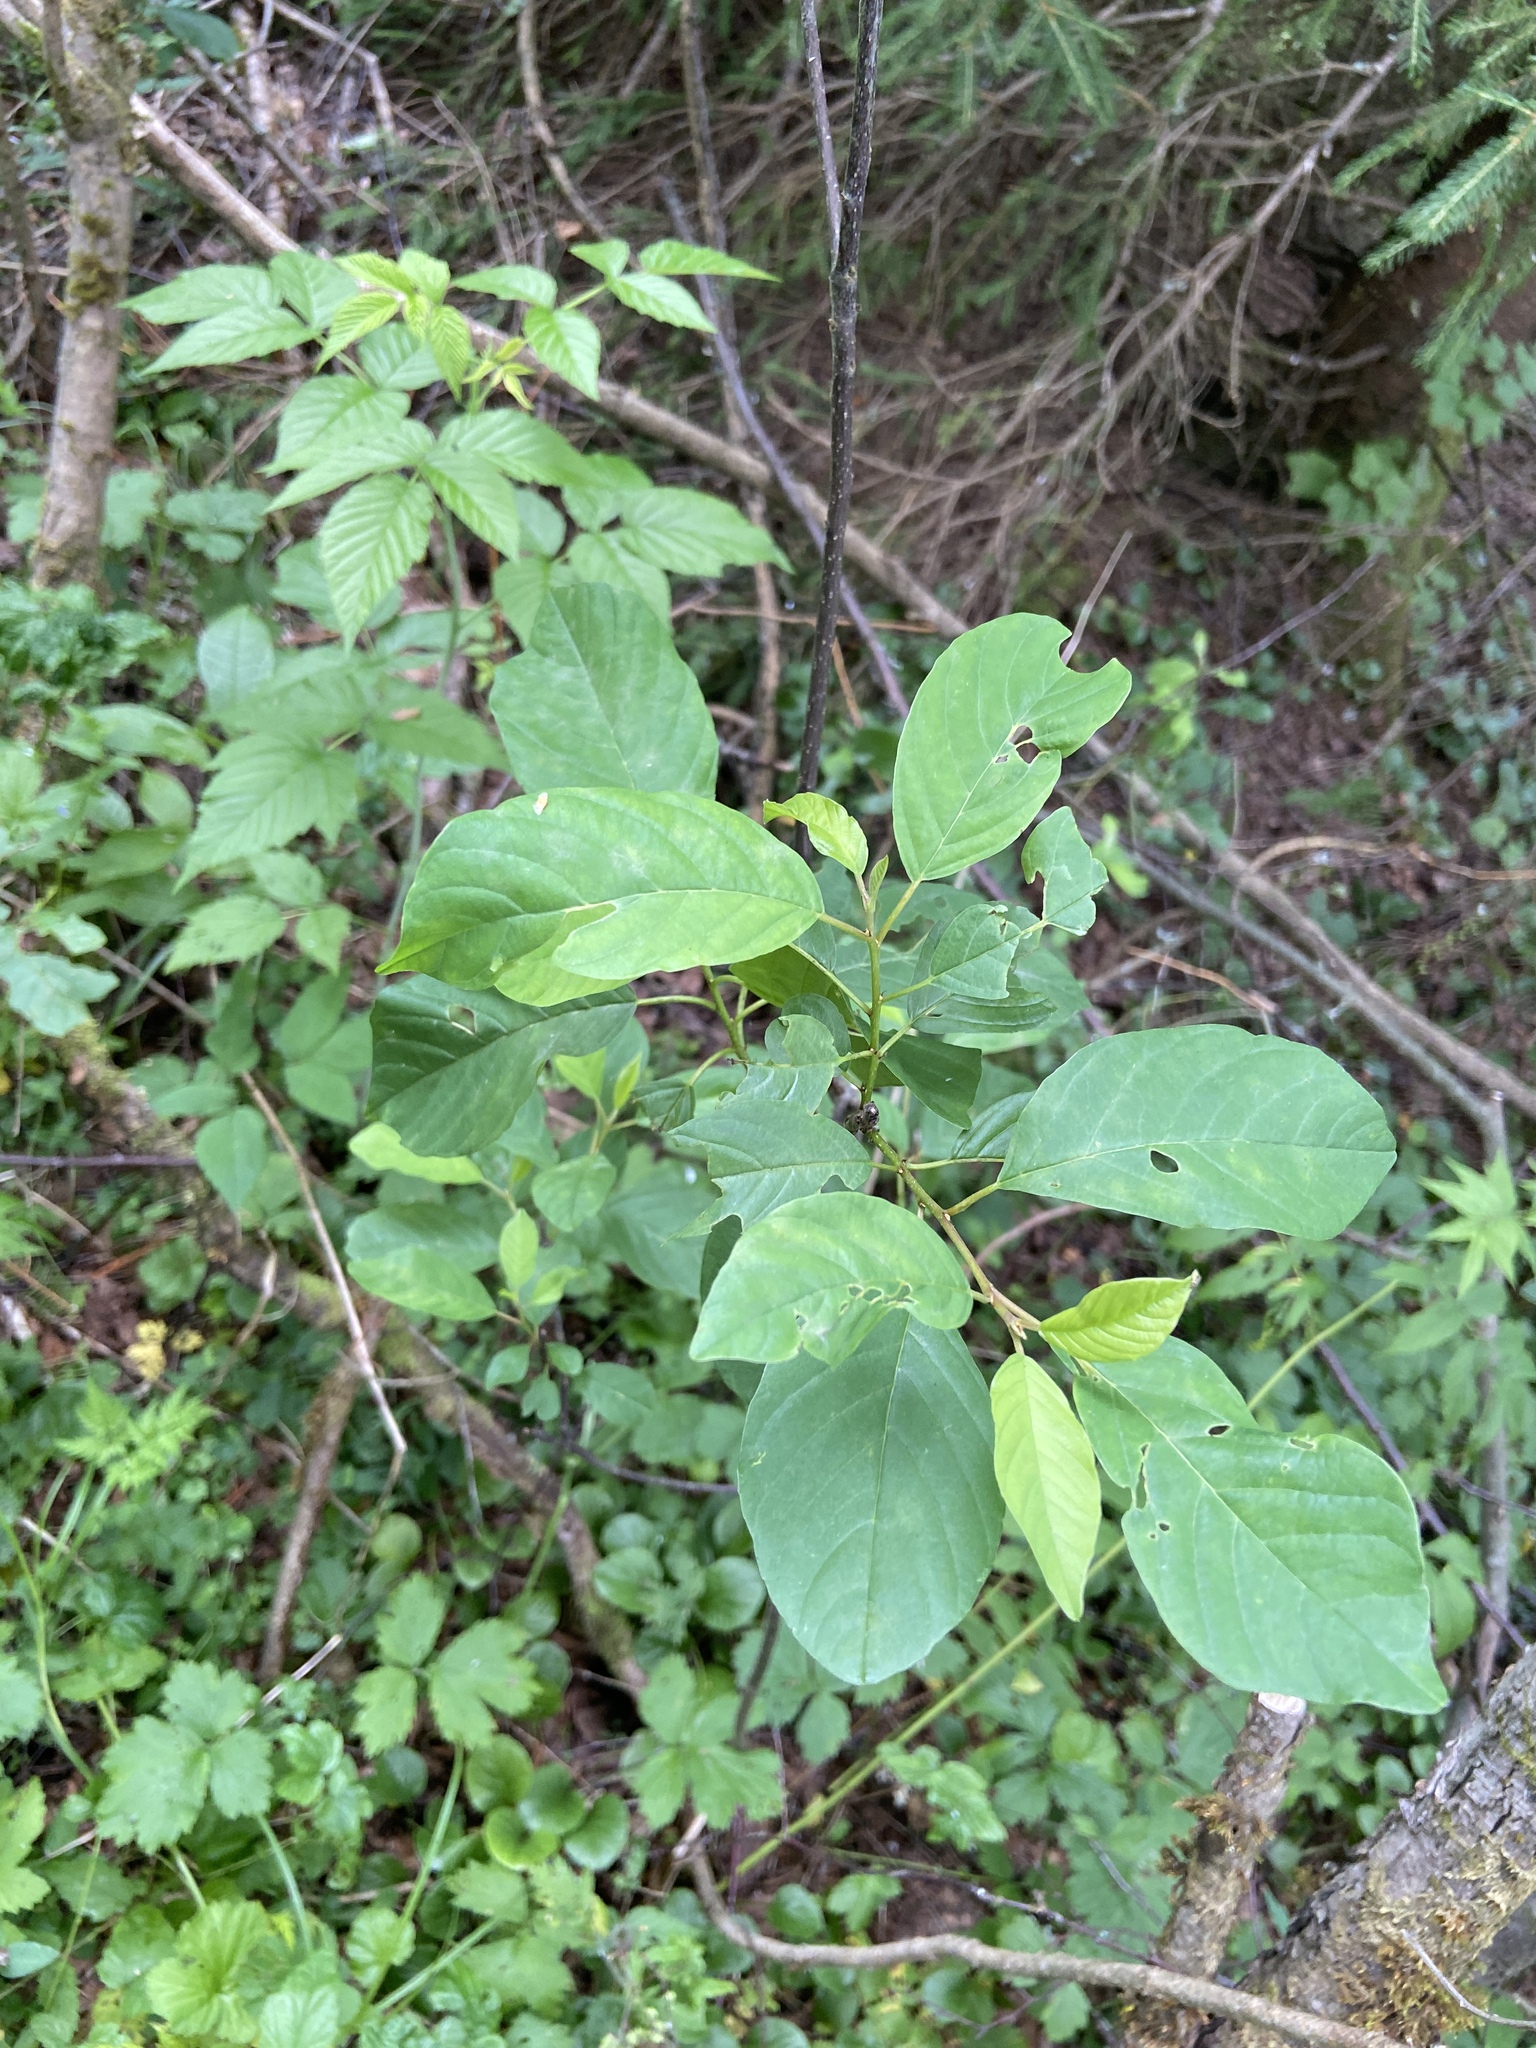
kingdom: Plantae
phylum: Tracheophyta
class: Magnoliopsida
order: Rosales
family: Rhamnaceae
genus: Frangula
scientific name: Frangula alnus
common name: Alder buckthorn
